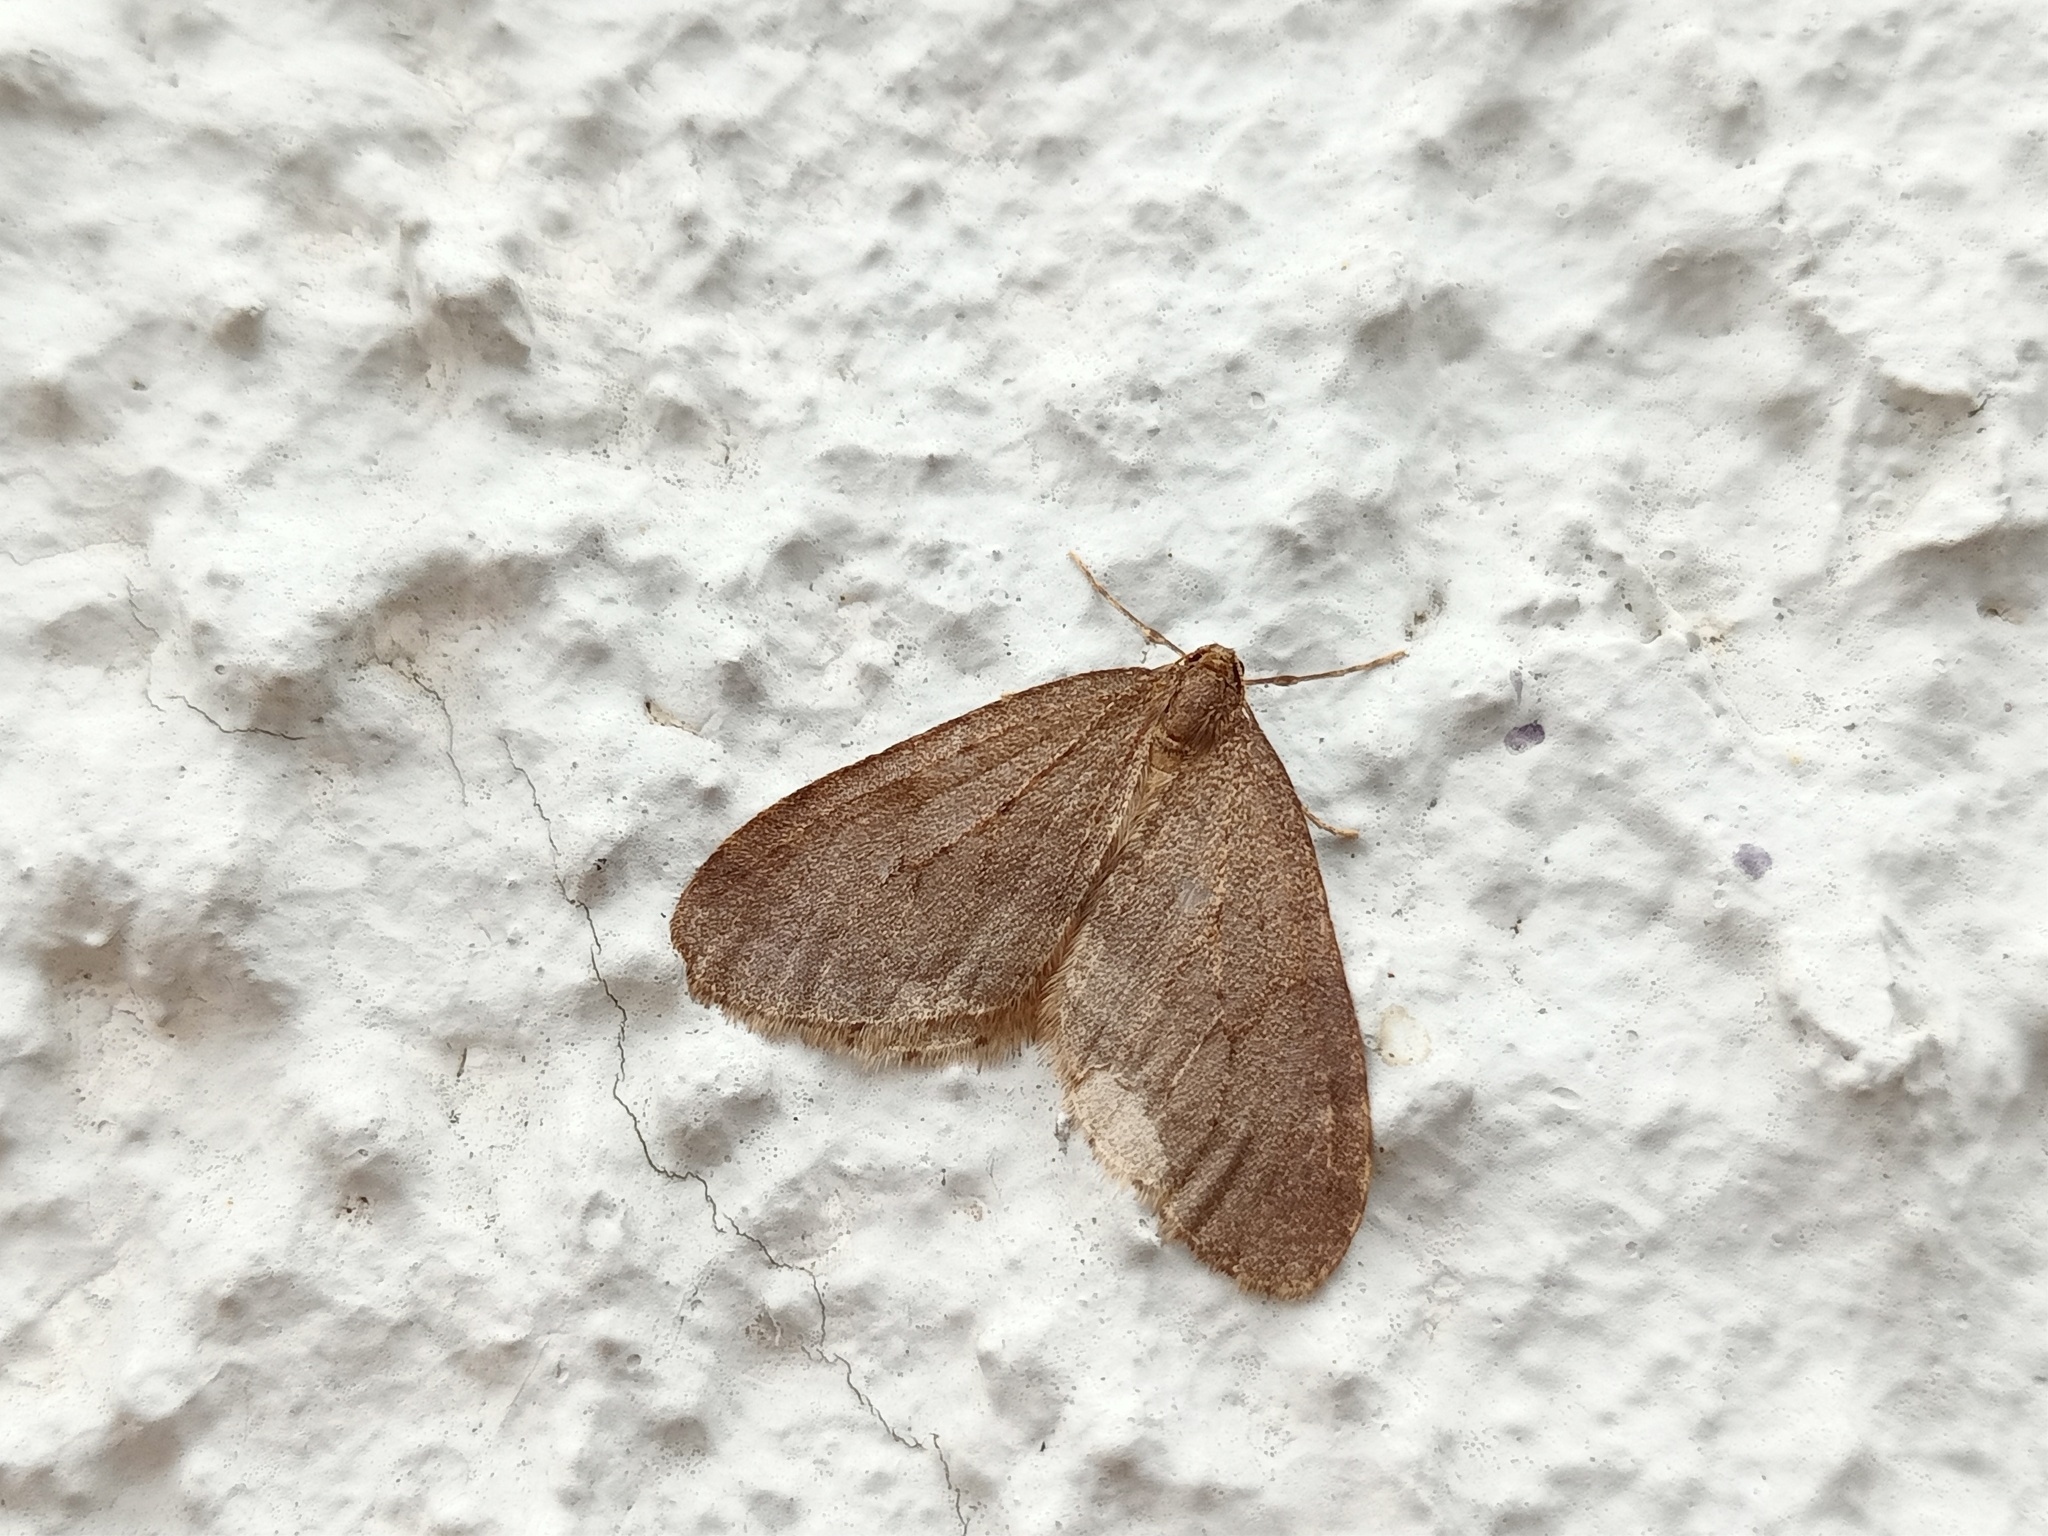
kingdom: Animalia
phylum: Arthropoda
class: Insecta
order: Lepidoptera
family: Geometridae
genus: Operophtera
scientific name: Operophtera brumata
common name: Winter moth
